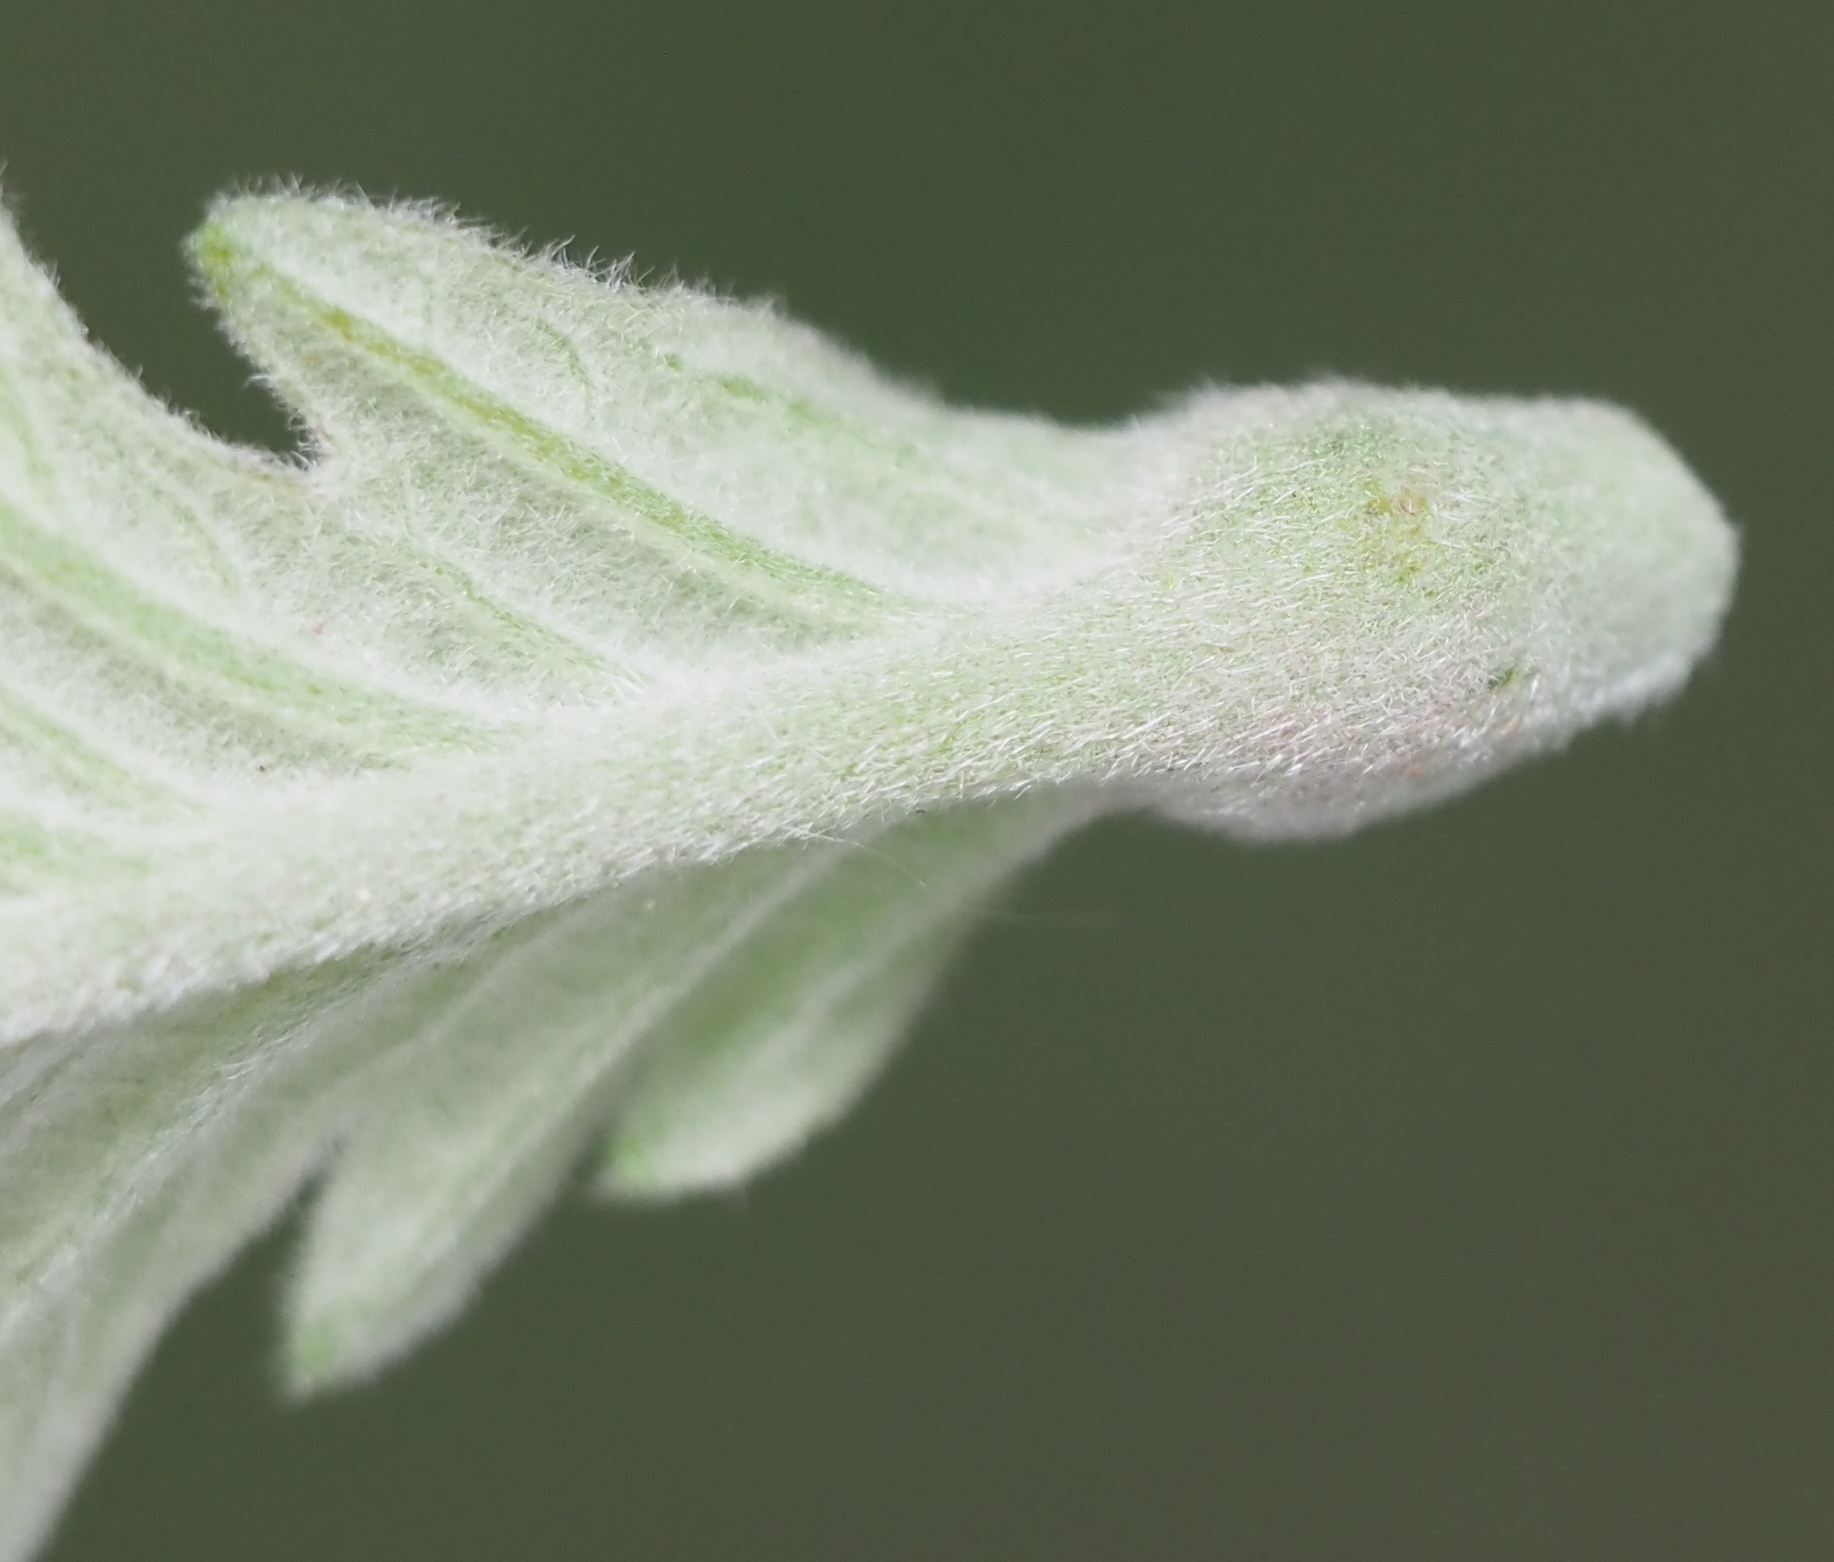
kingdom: Animalia
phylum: Arthropoda
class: Insecta
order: Hymenoptera
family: Cynipidae
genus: Andricus
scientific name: Andricus
